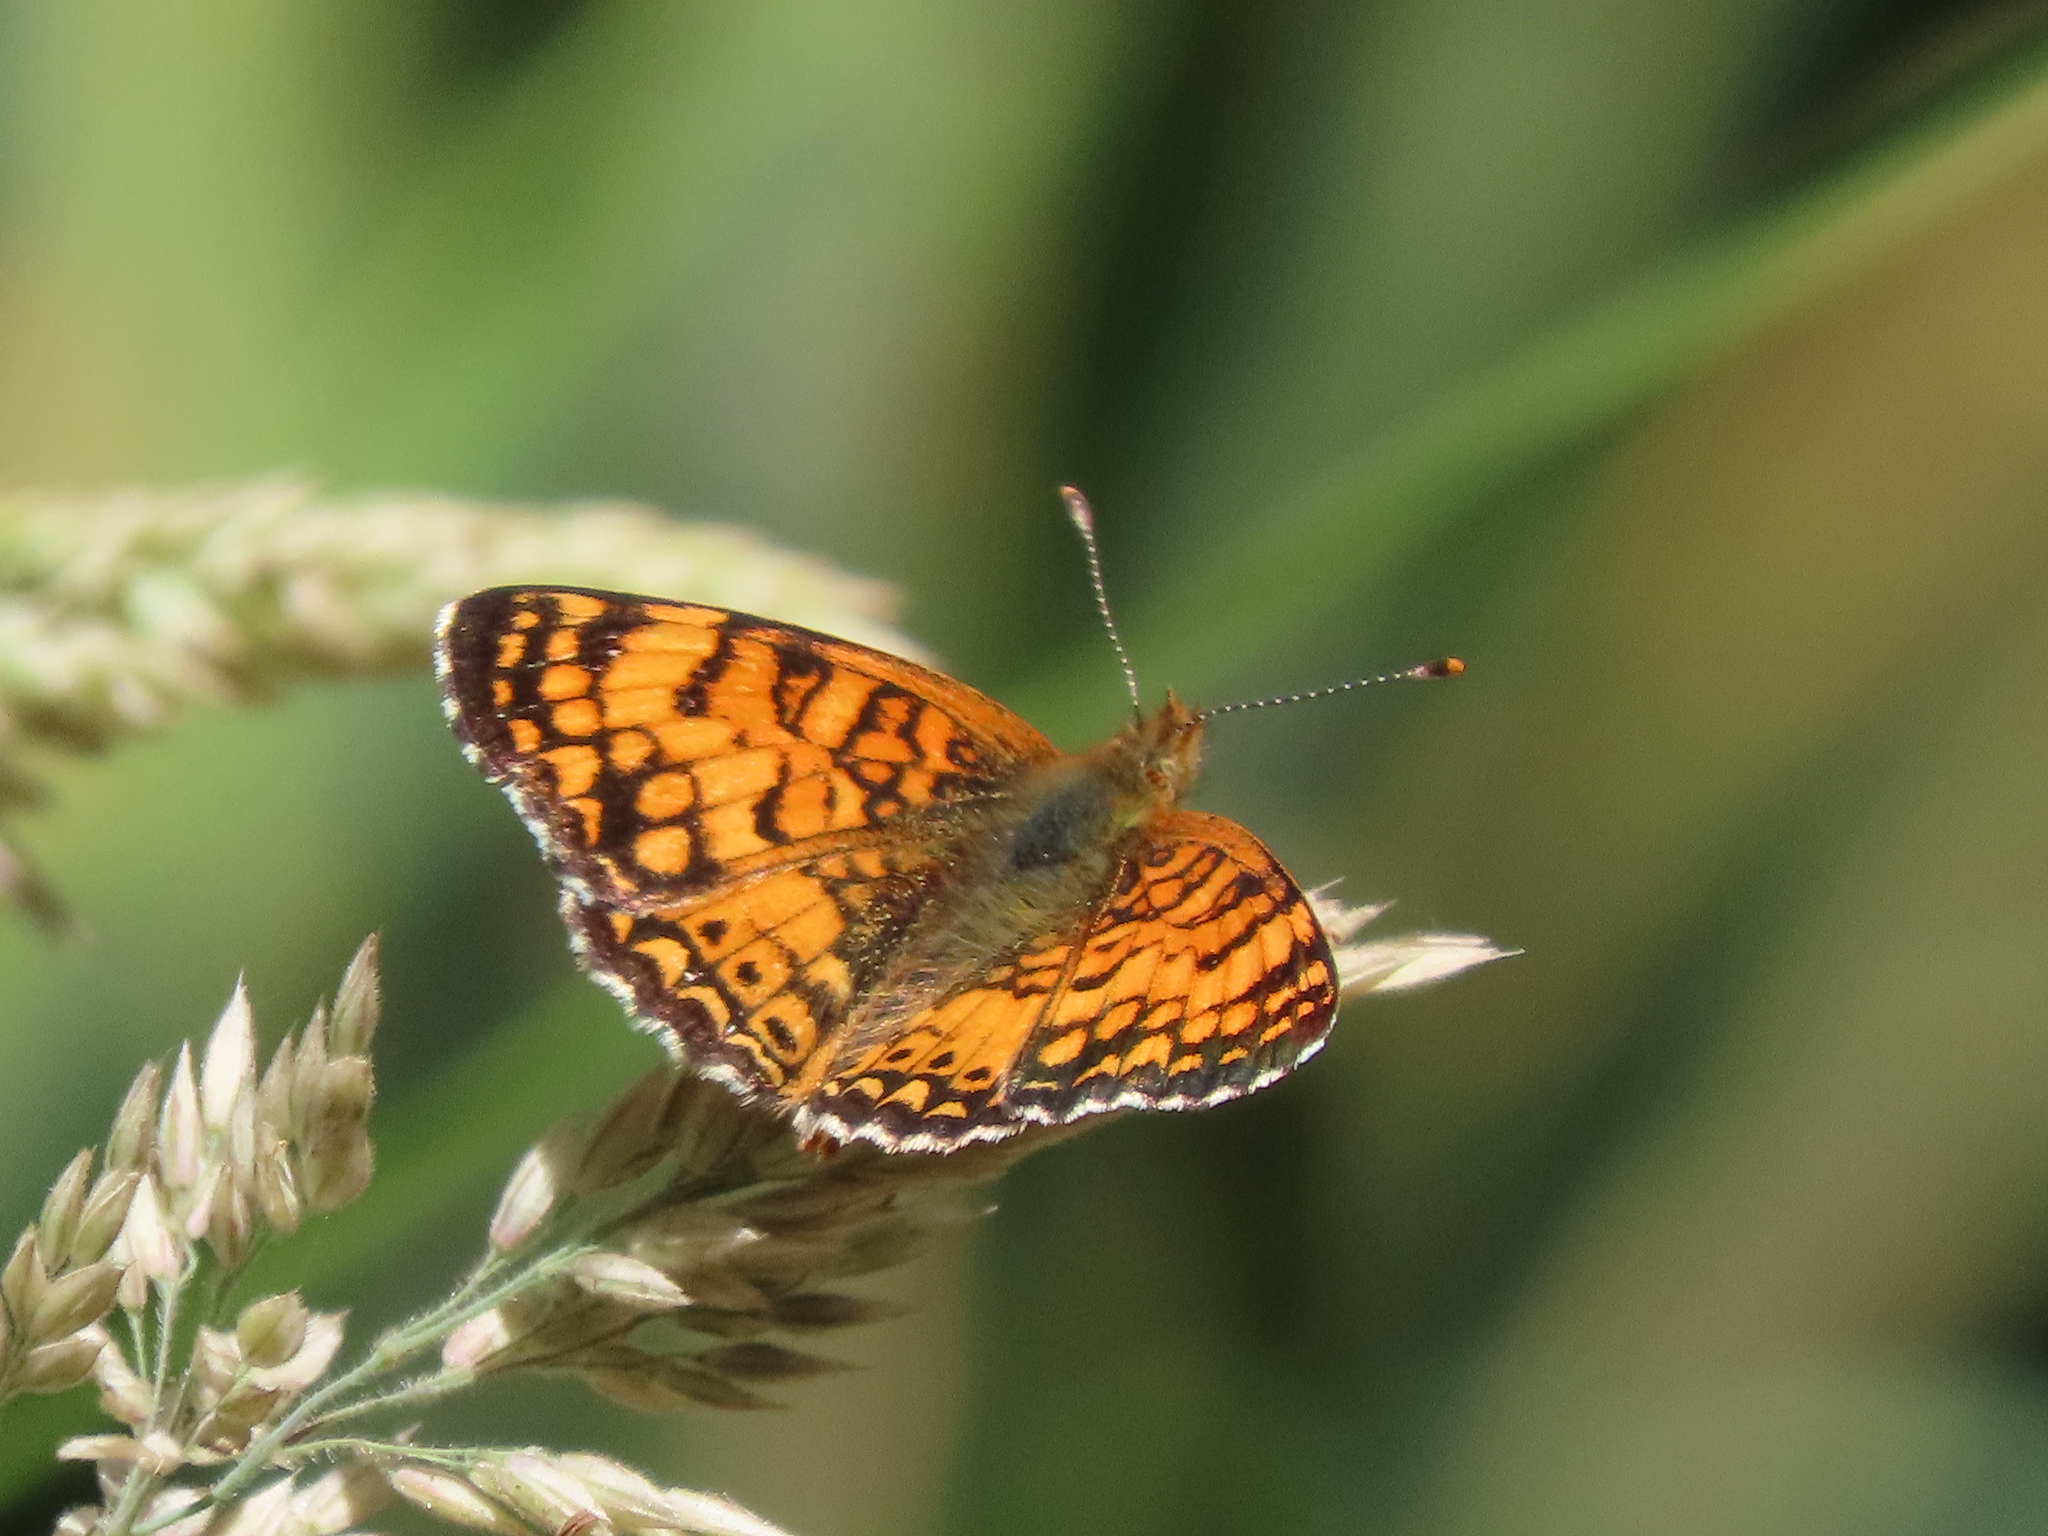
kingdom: Animalia
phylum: Arthropoda
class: Insecta
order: Lepidoptera
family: Nymphalidae
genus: Eresia
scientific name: Eresia aveyrona
